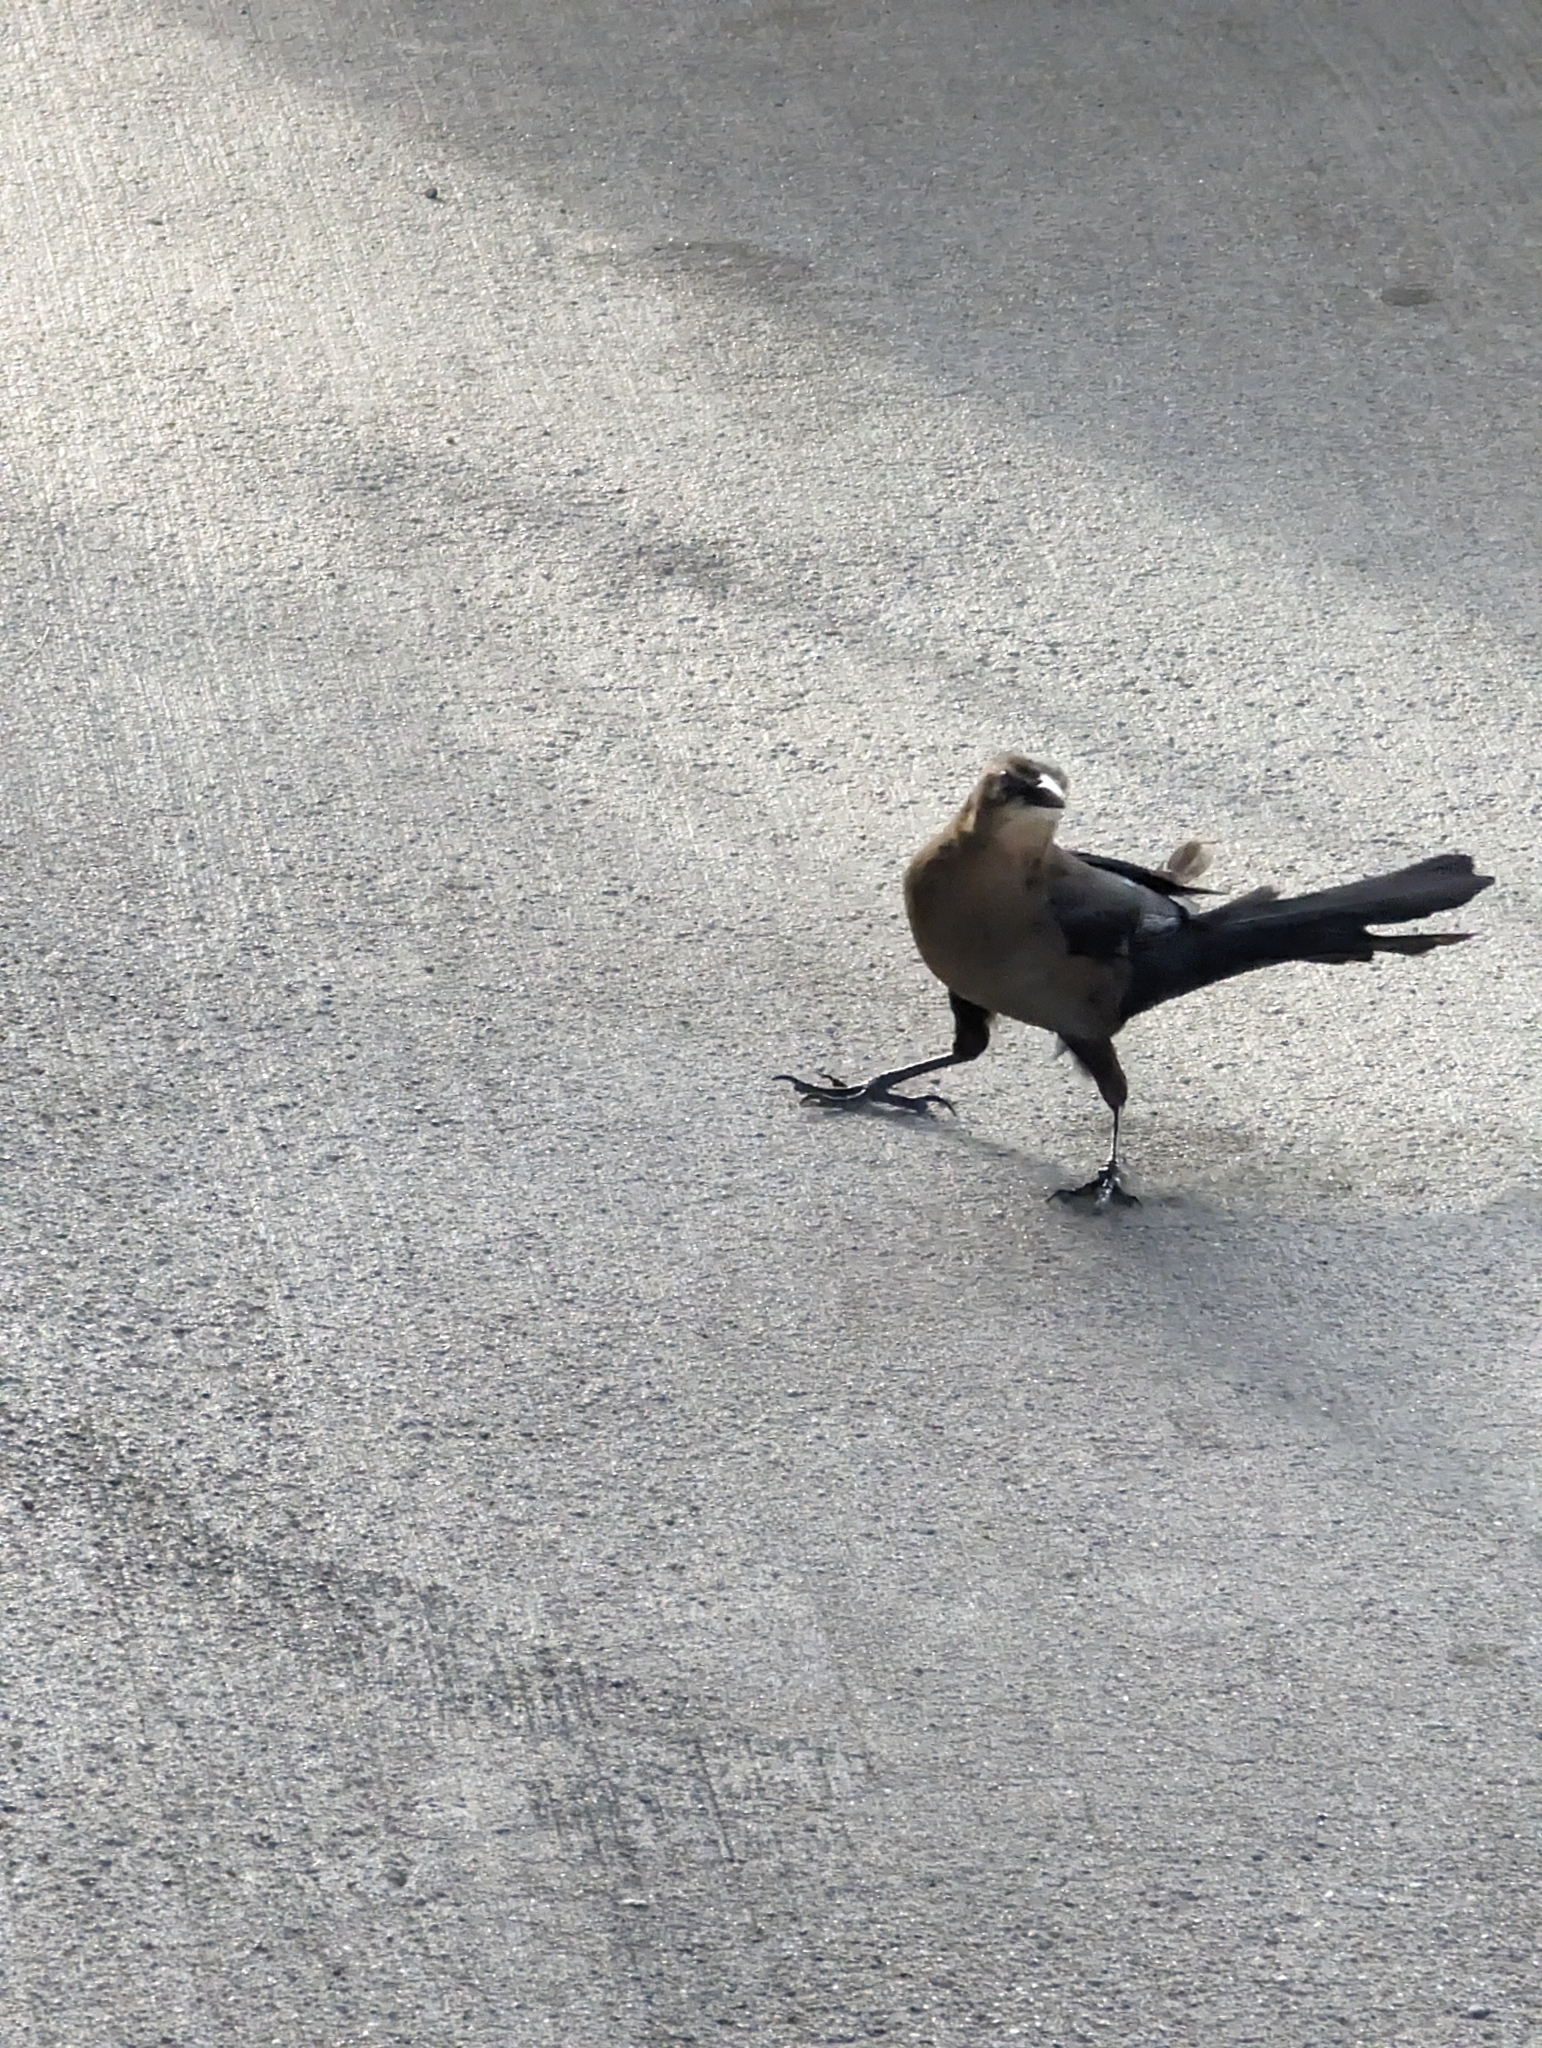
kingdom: Animalia
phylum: Chordata
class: Aves
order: Passeriformes
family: Icteridae
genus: Quiscalus
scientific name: Quiscalus mexicanus
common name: Great-tailed grackle
